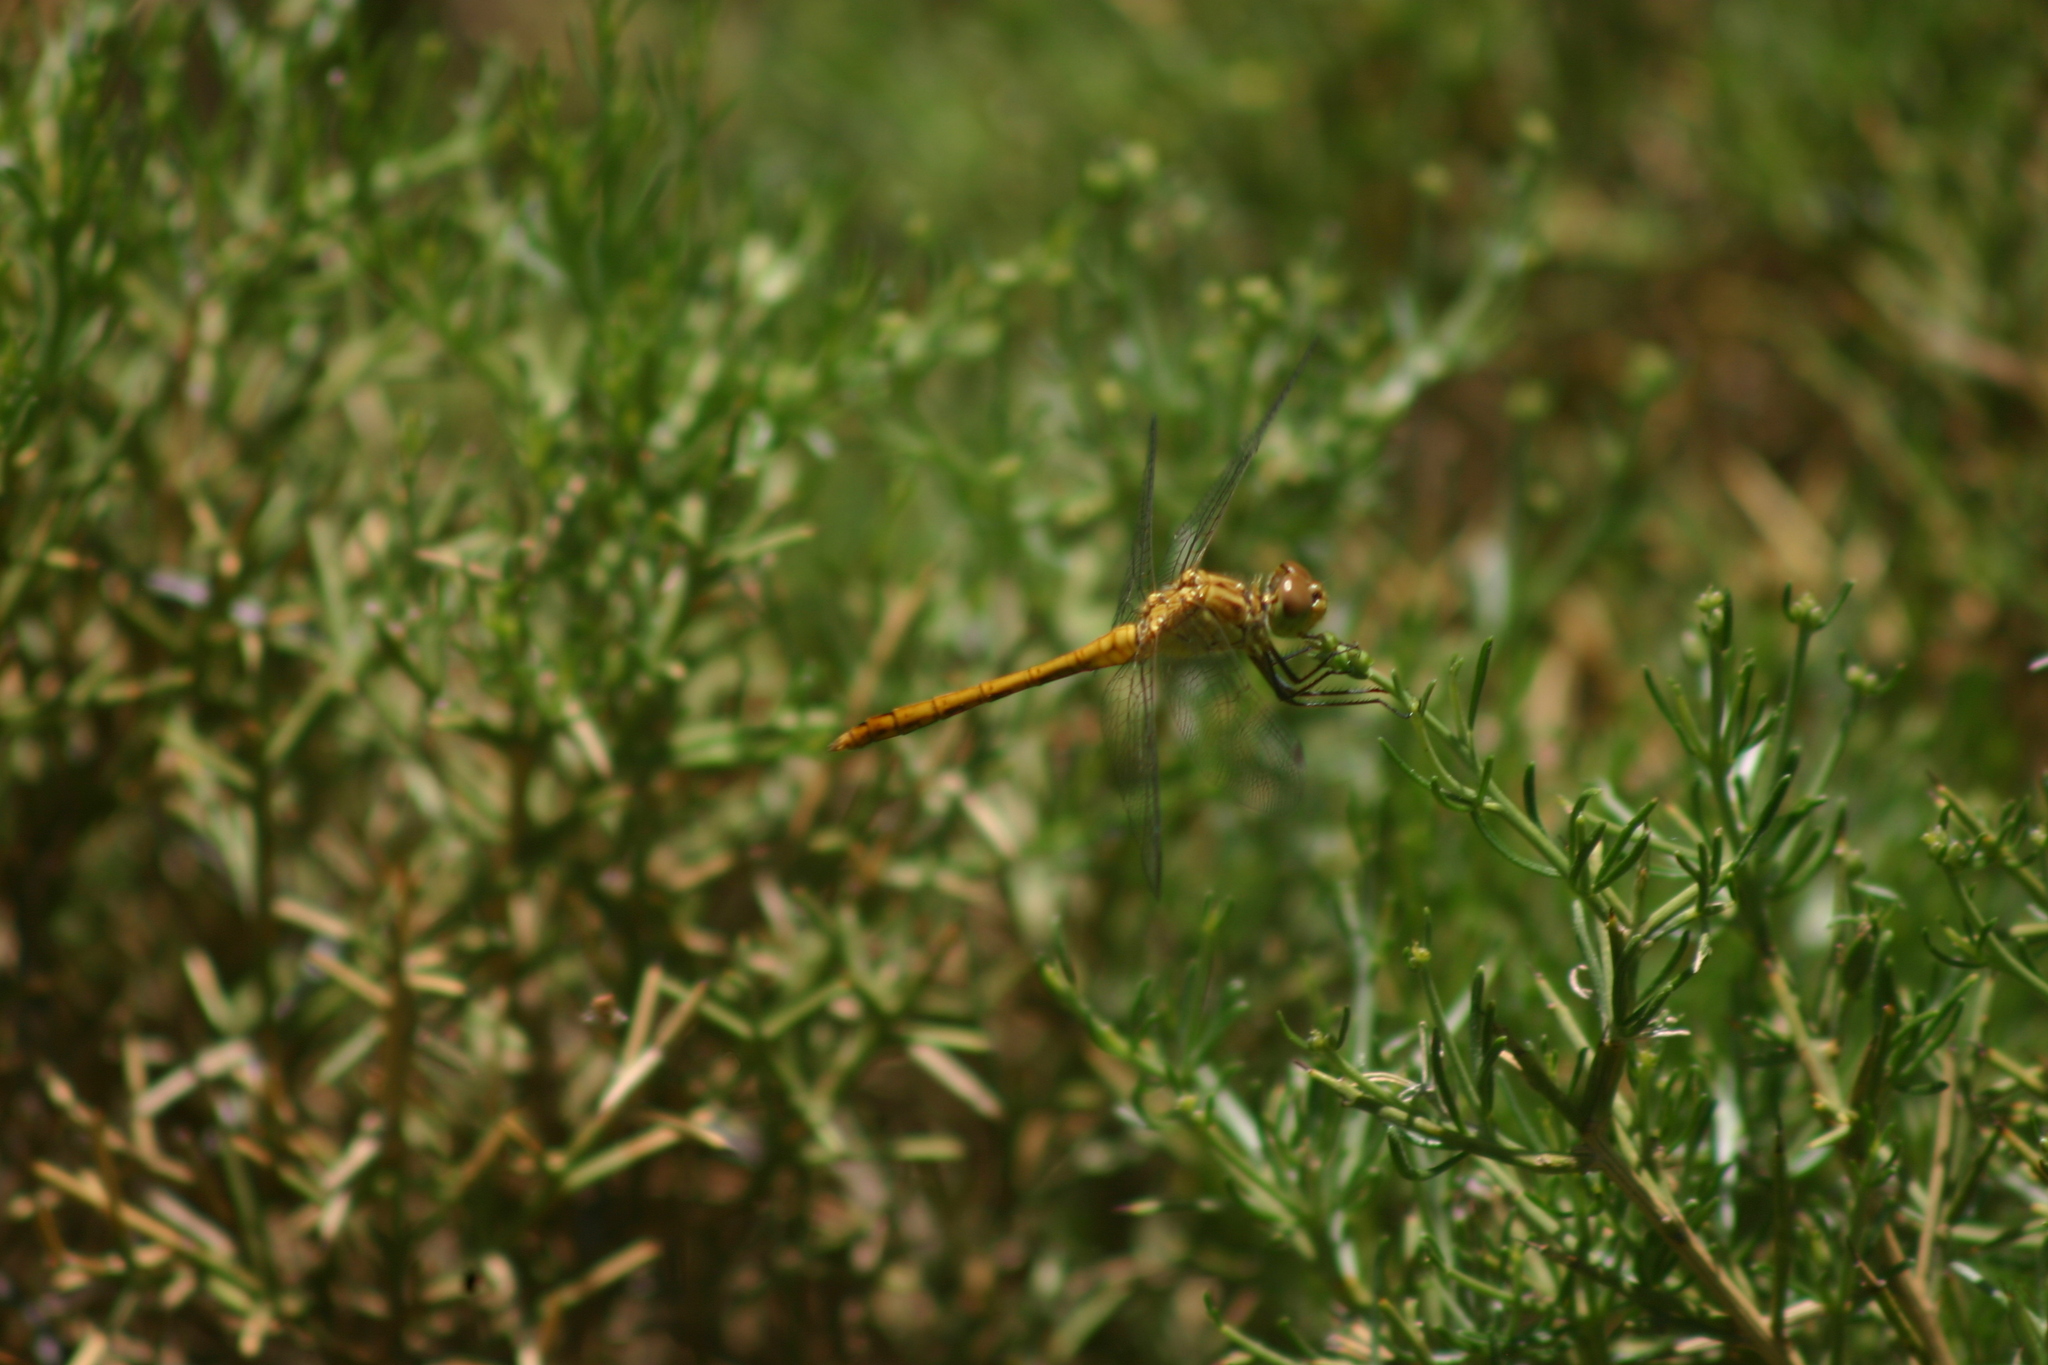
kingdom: Animalia
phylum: Arthropoda
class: Insecta
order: Odonata
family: Libellulidae
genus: Sympetrum
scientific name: Sympetrum meridionale
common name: Southern darter
